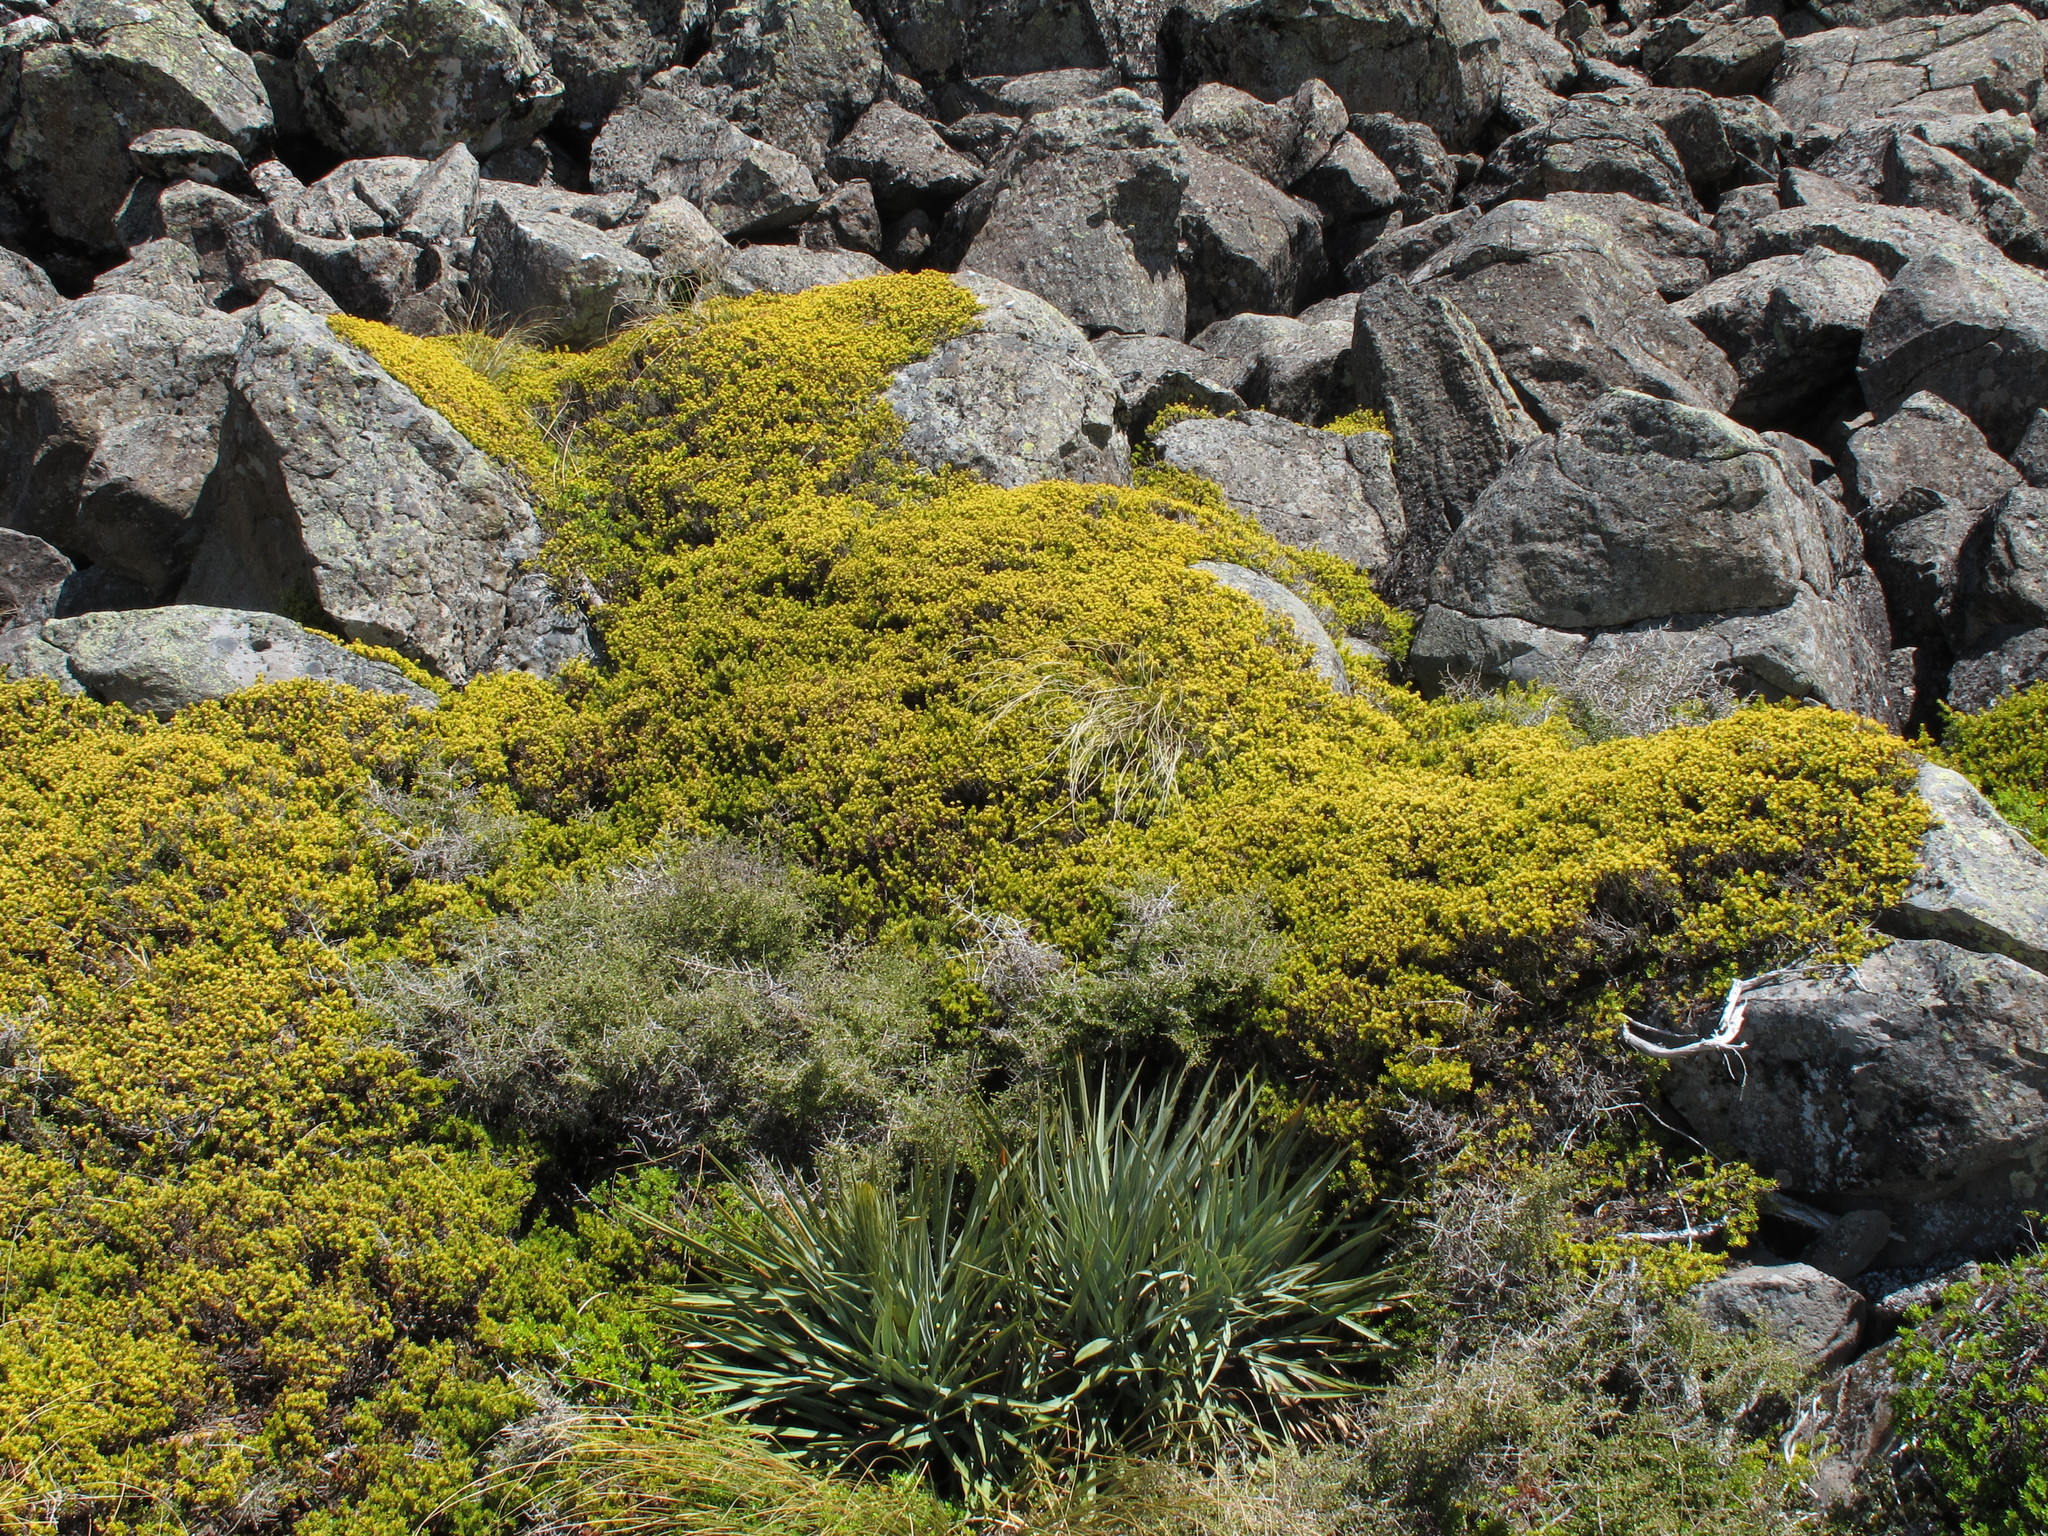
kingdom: Plantae
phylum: Tracheophyta
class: Pinopsida
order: Pinales
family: Podocarpaceae
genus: Podocarpus
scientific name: Podocarpus nivalis
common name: Alpine totara
